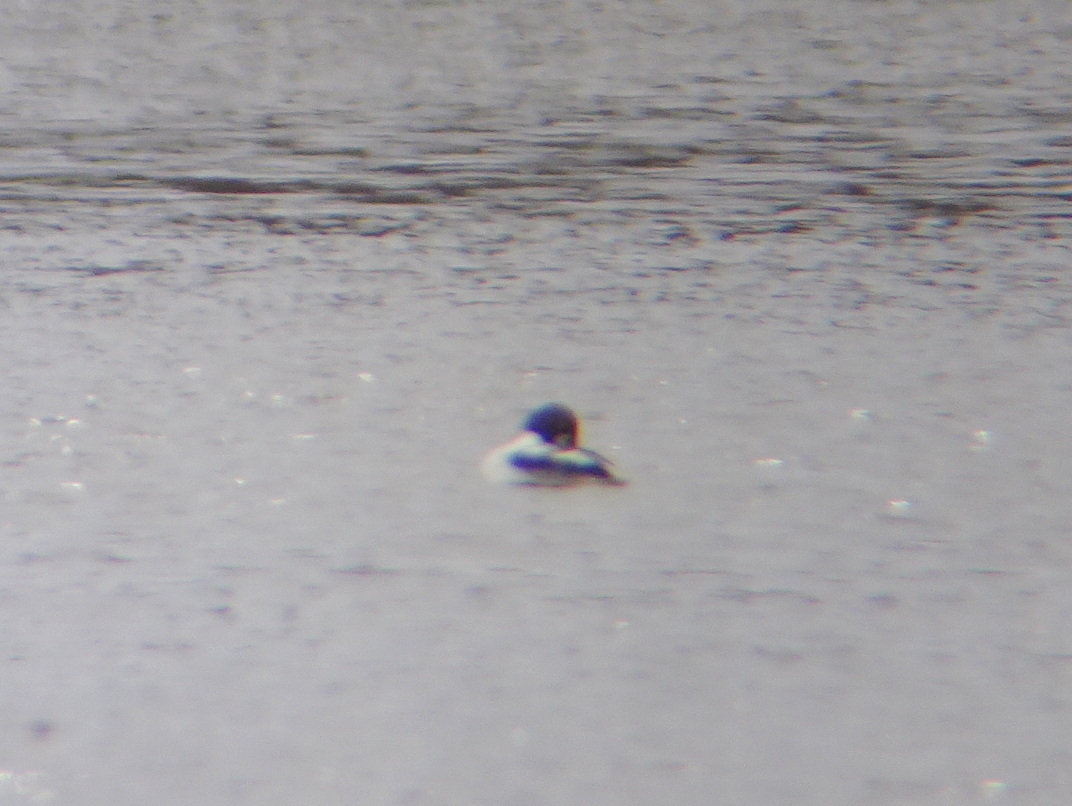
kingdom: Animalia
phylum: Chordata
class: Aves
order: Anseriformes
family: Anatidae
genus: Bucephala
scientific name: Bucephala clangula
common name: Common goldeneye
